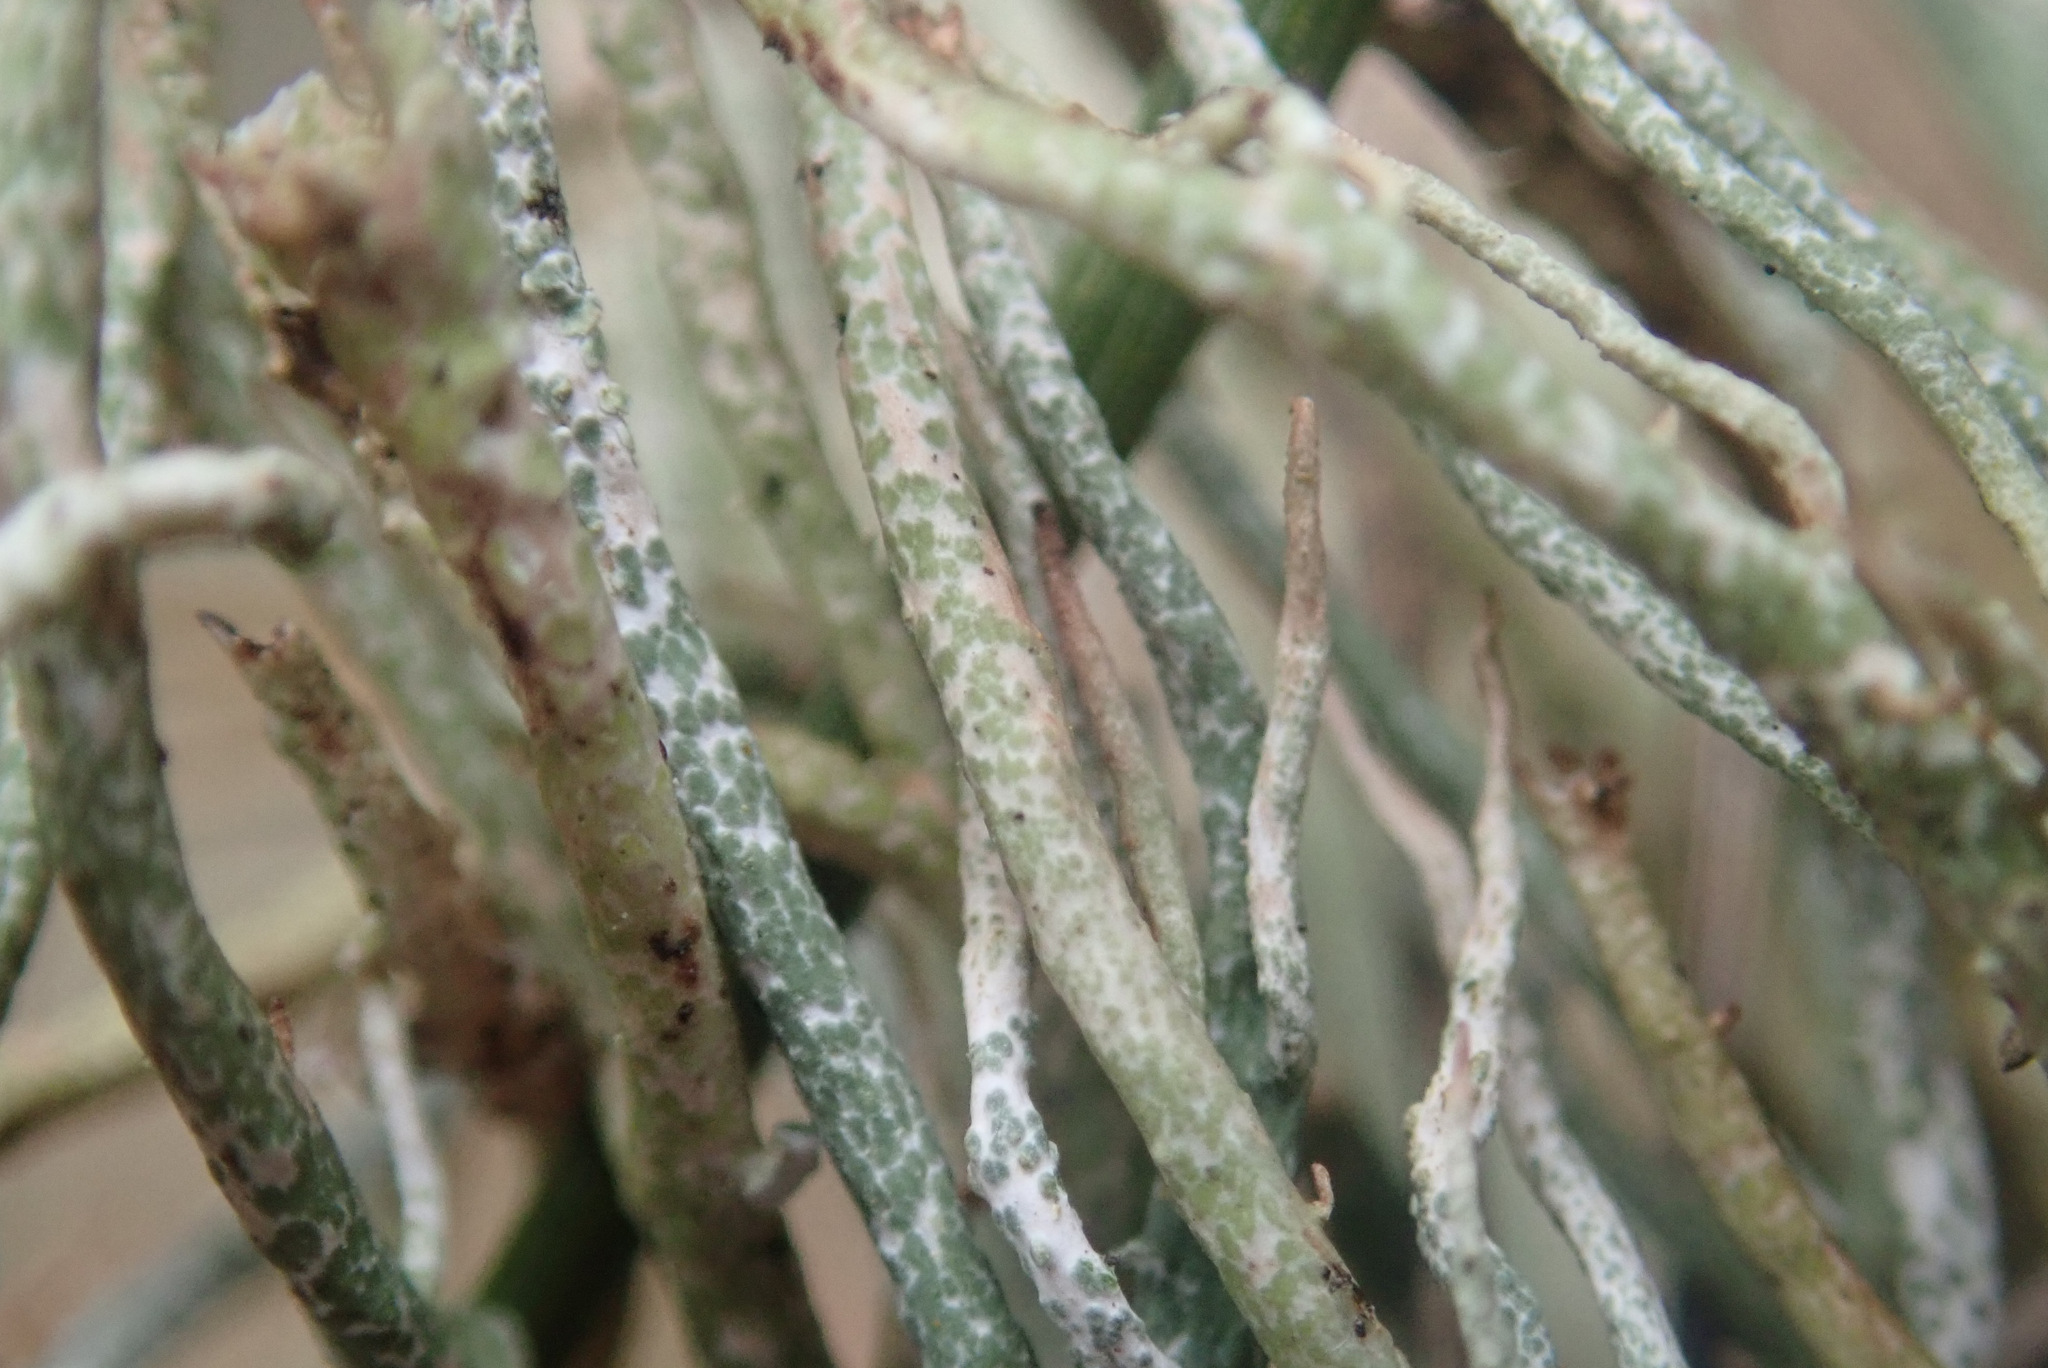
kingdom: Fungi
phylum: Ascomycota
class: Lecanoromycetes
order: Lecanorales
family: Cladoniaceae
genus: Cladonia
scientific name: Cladonia furcata
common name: Many-forked cladonia
